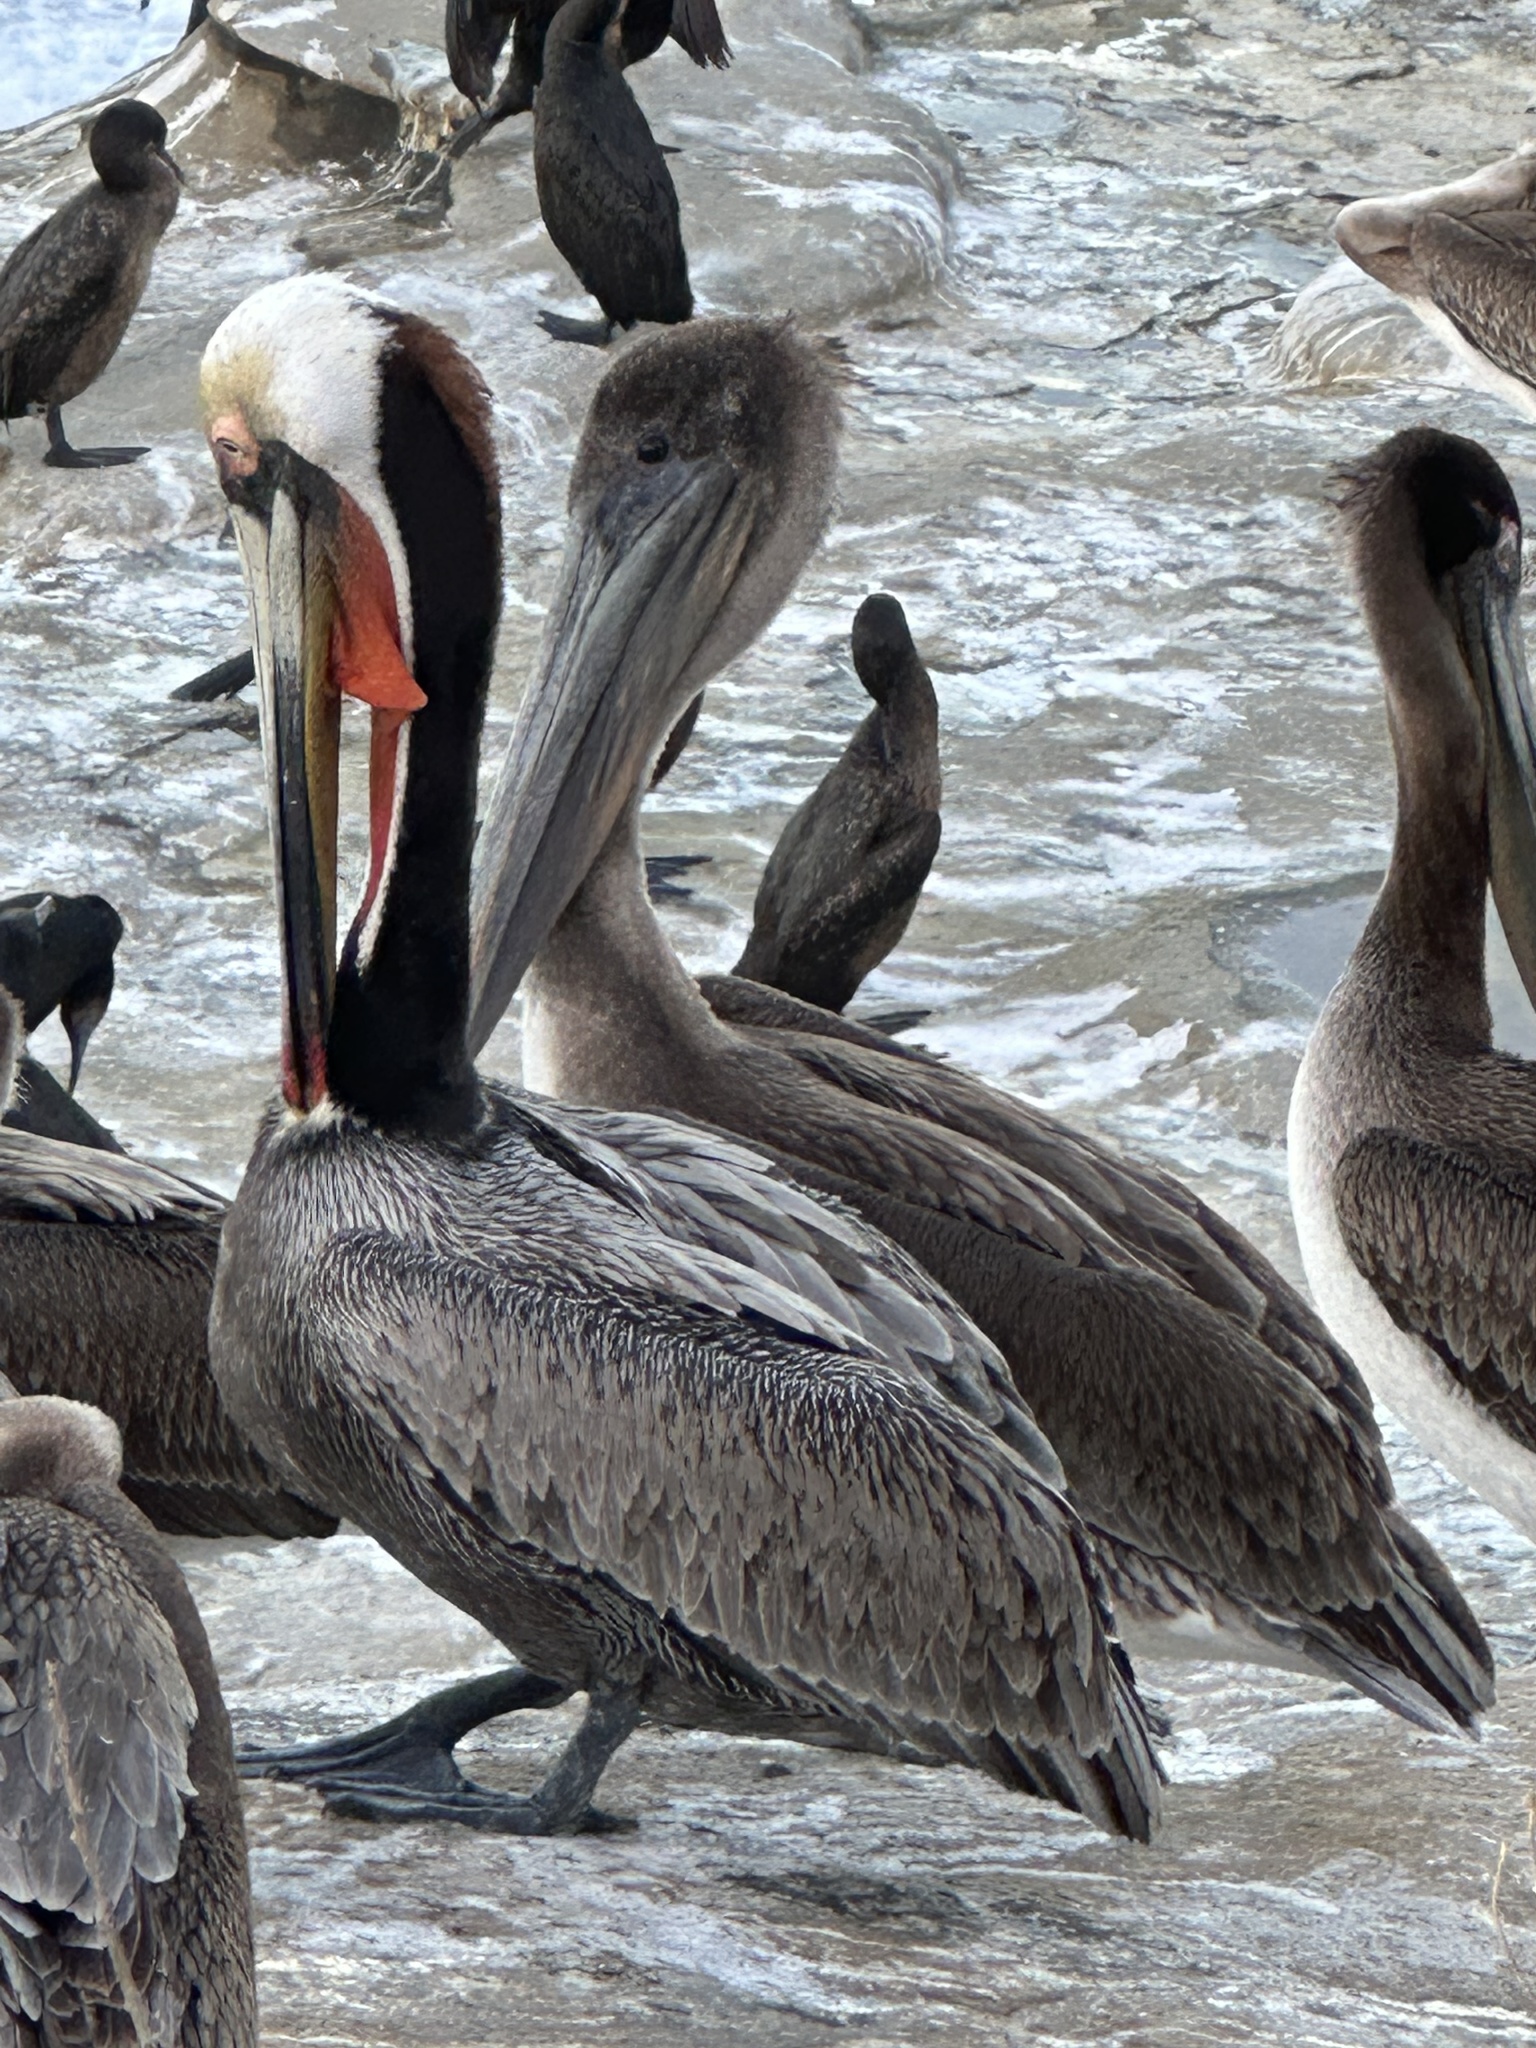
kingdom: Animalia
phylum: Chordata
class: Aves
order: Pelecaniformes
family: Pelecanidae
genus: Pelecanus
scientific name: Pelecanus occidentalis
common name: Brown pelican
